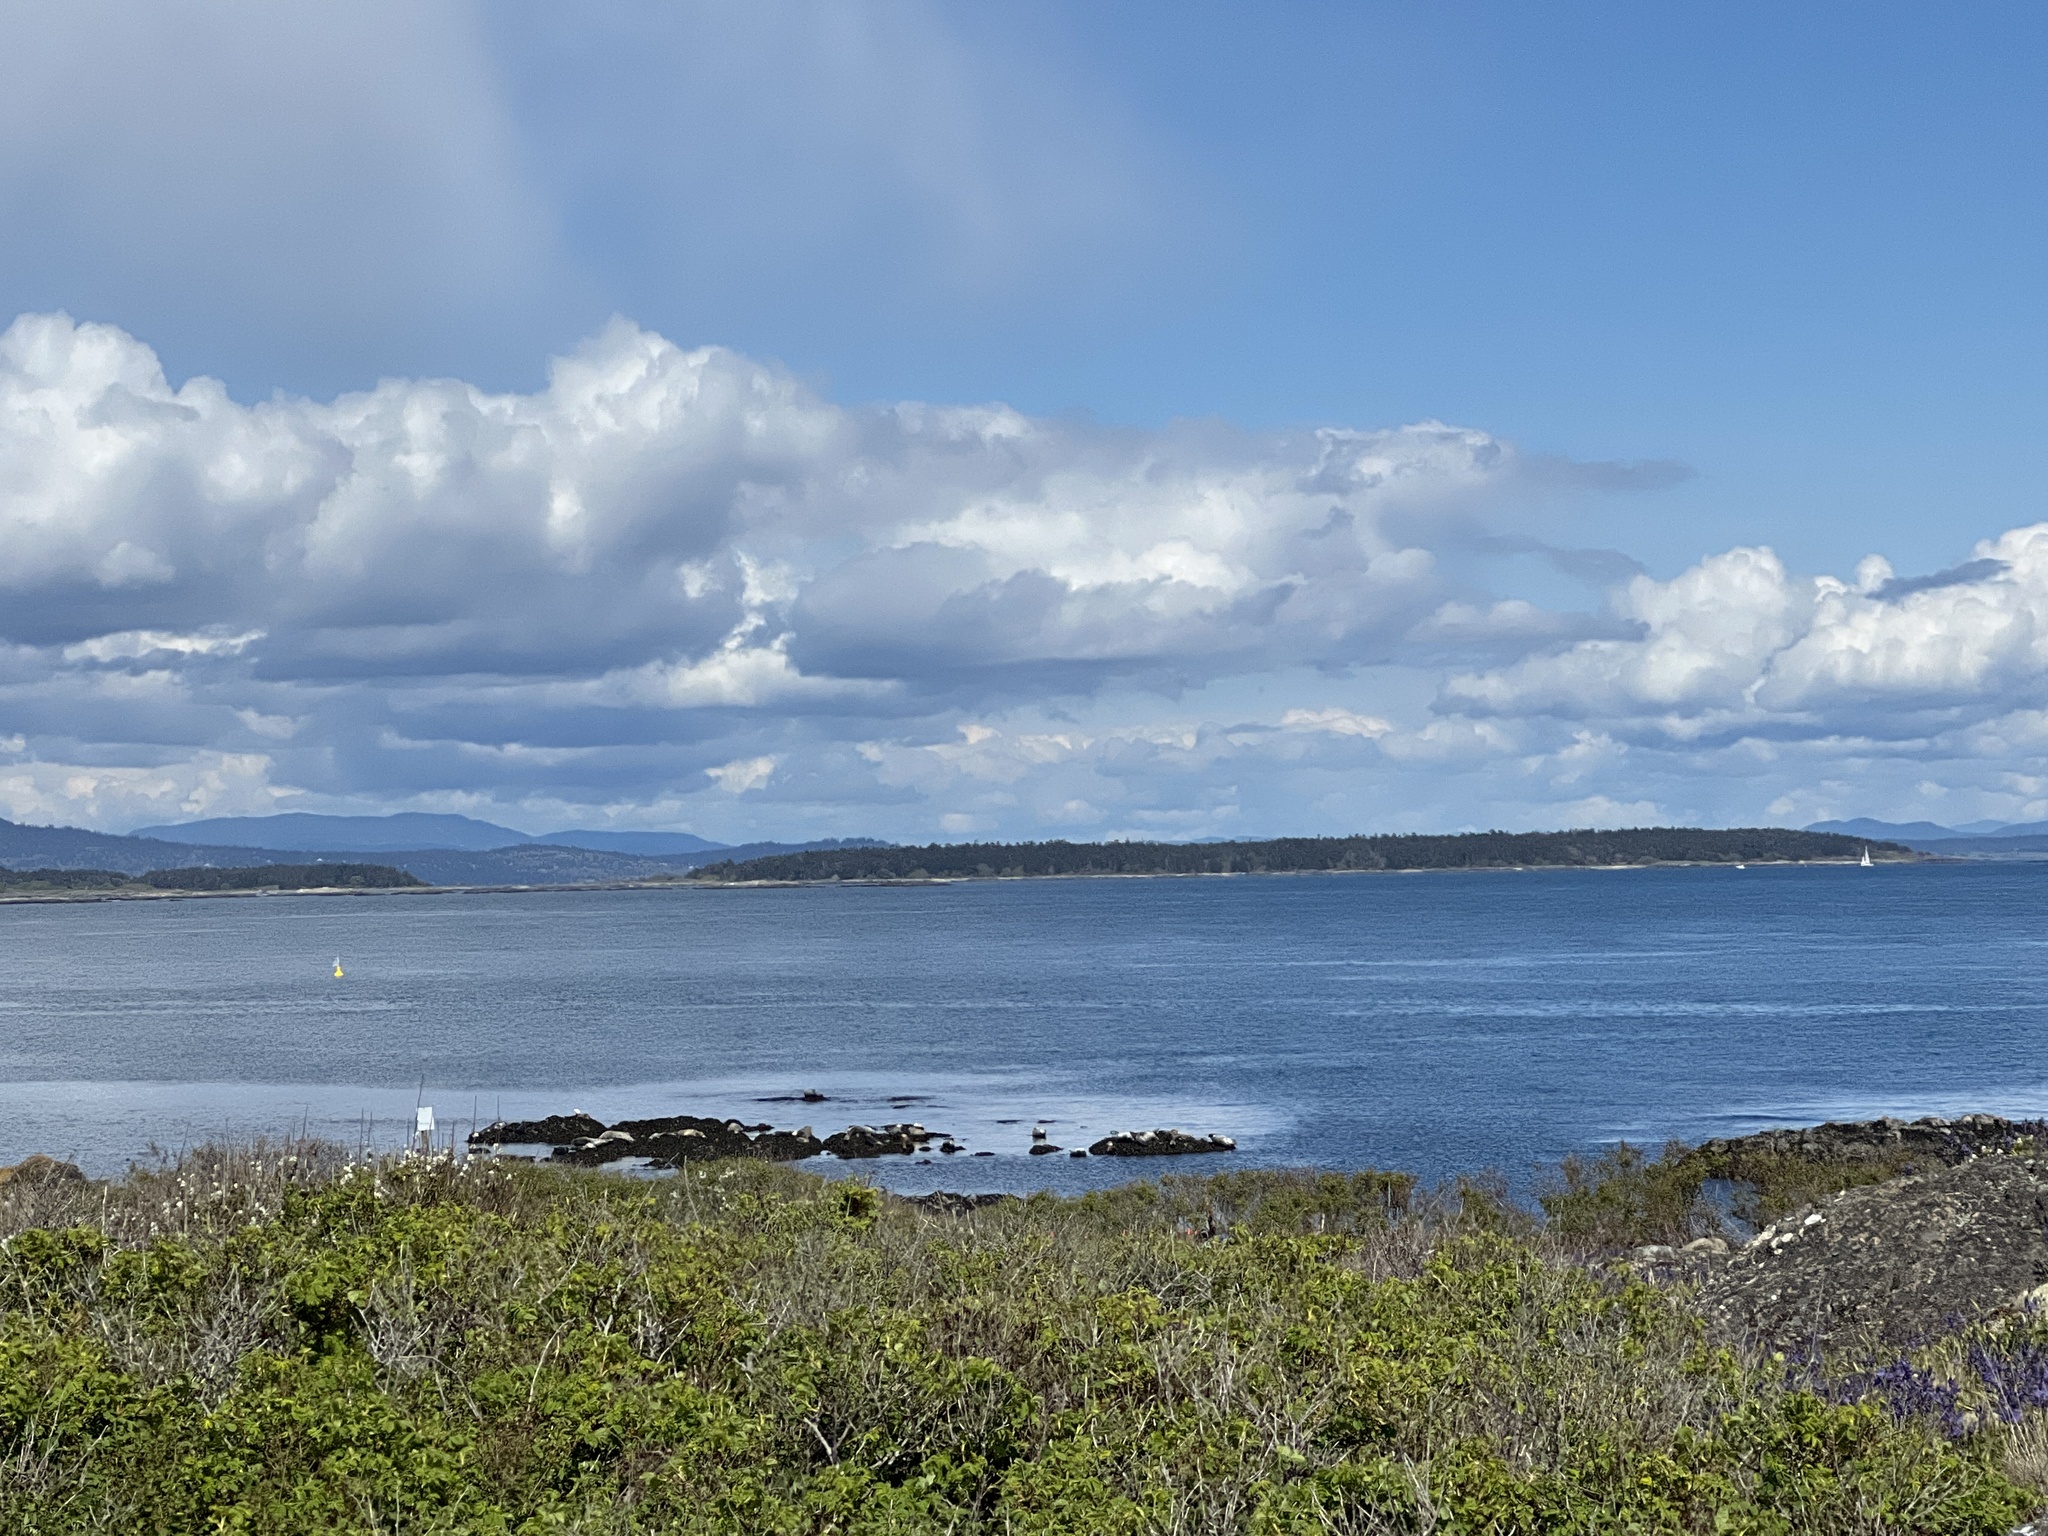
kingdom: Animalia
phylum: Chordata
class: Mammalia
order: Carnivora
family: Phocidae
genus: Phoca
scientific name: Phoca vitulina
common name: Harbor seal
